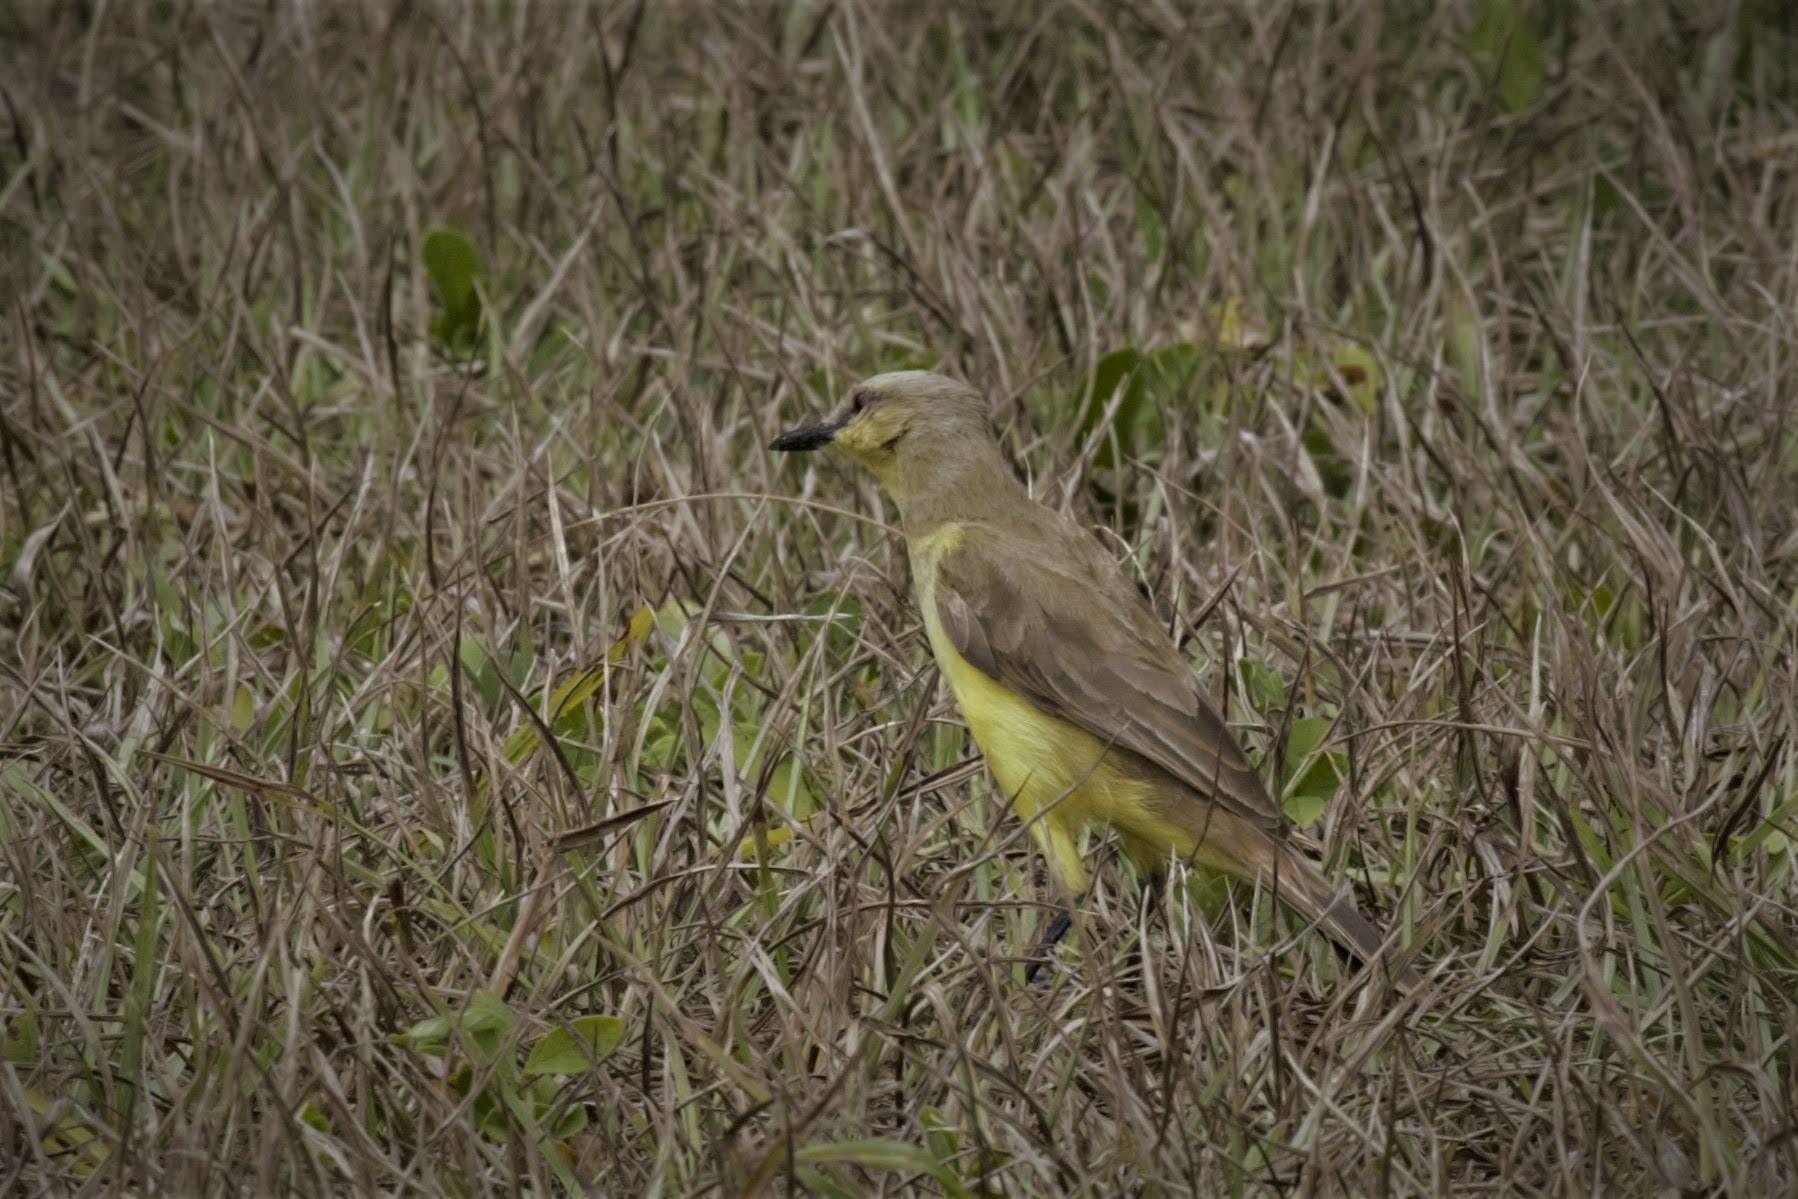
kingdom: Animalia
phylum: Chordata
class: Aves
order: Passeriformes
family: Tyrannidae
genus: Machetornis
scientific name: Machetornis rixosa
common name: Cattle tyrant
